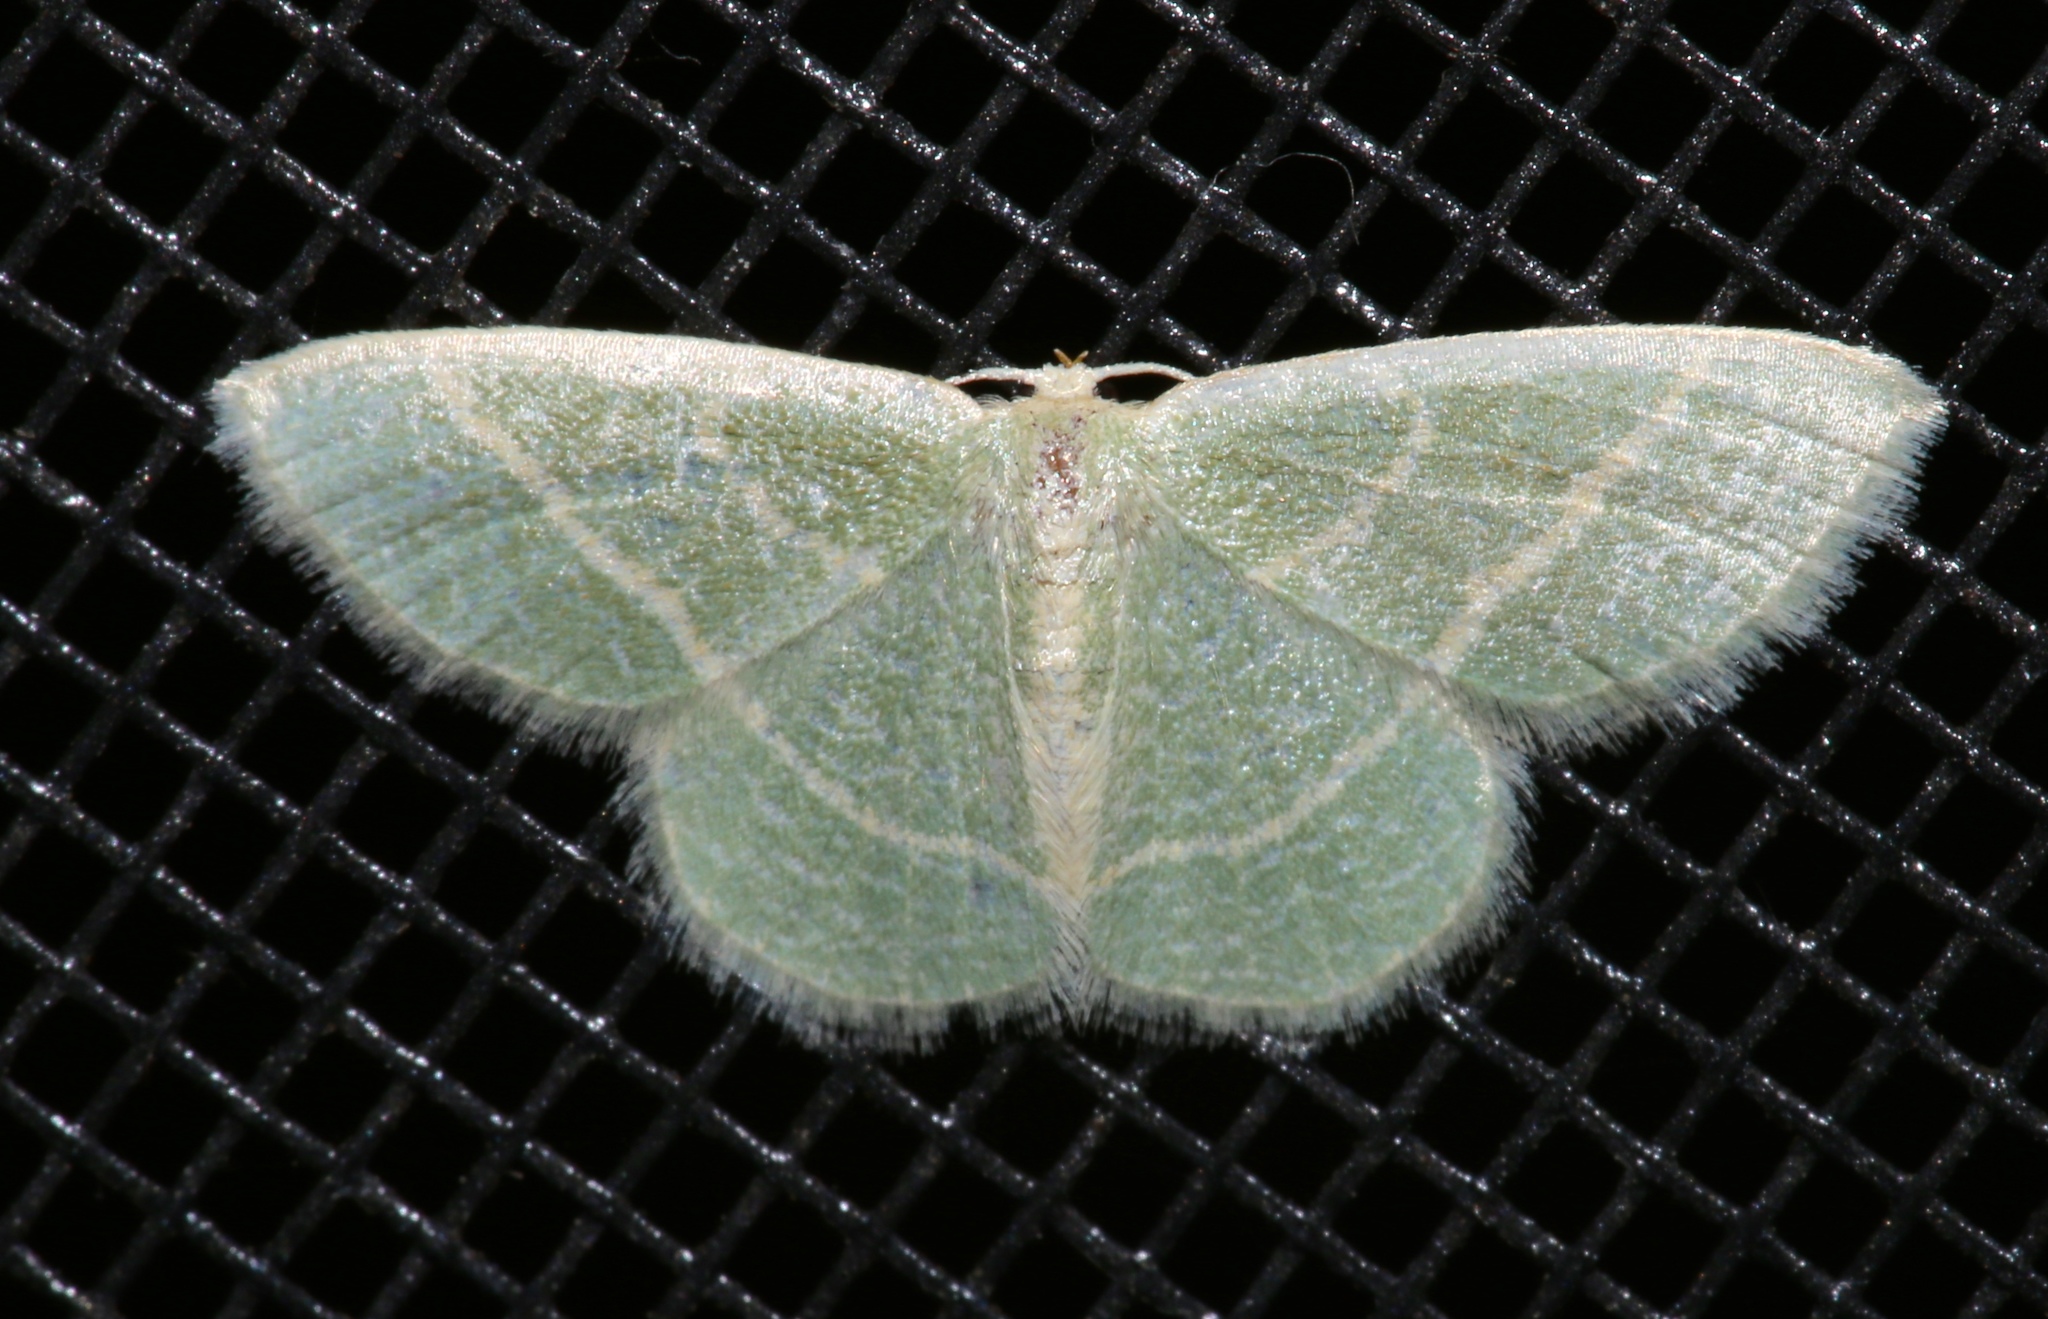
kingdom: Animalia
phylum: Arthropoda
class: Insecta
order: Lepidoptera
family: Geometridae
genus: Chlorochlamys
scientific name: Chlorochlamys chloroleucaria
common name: Blackberry looper
